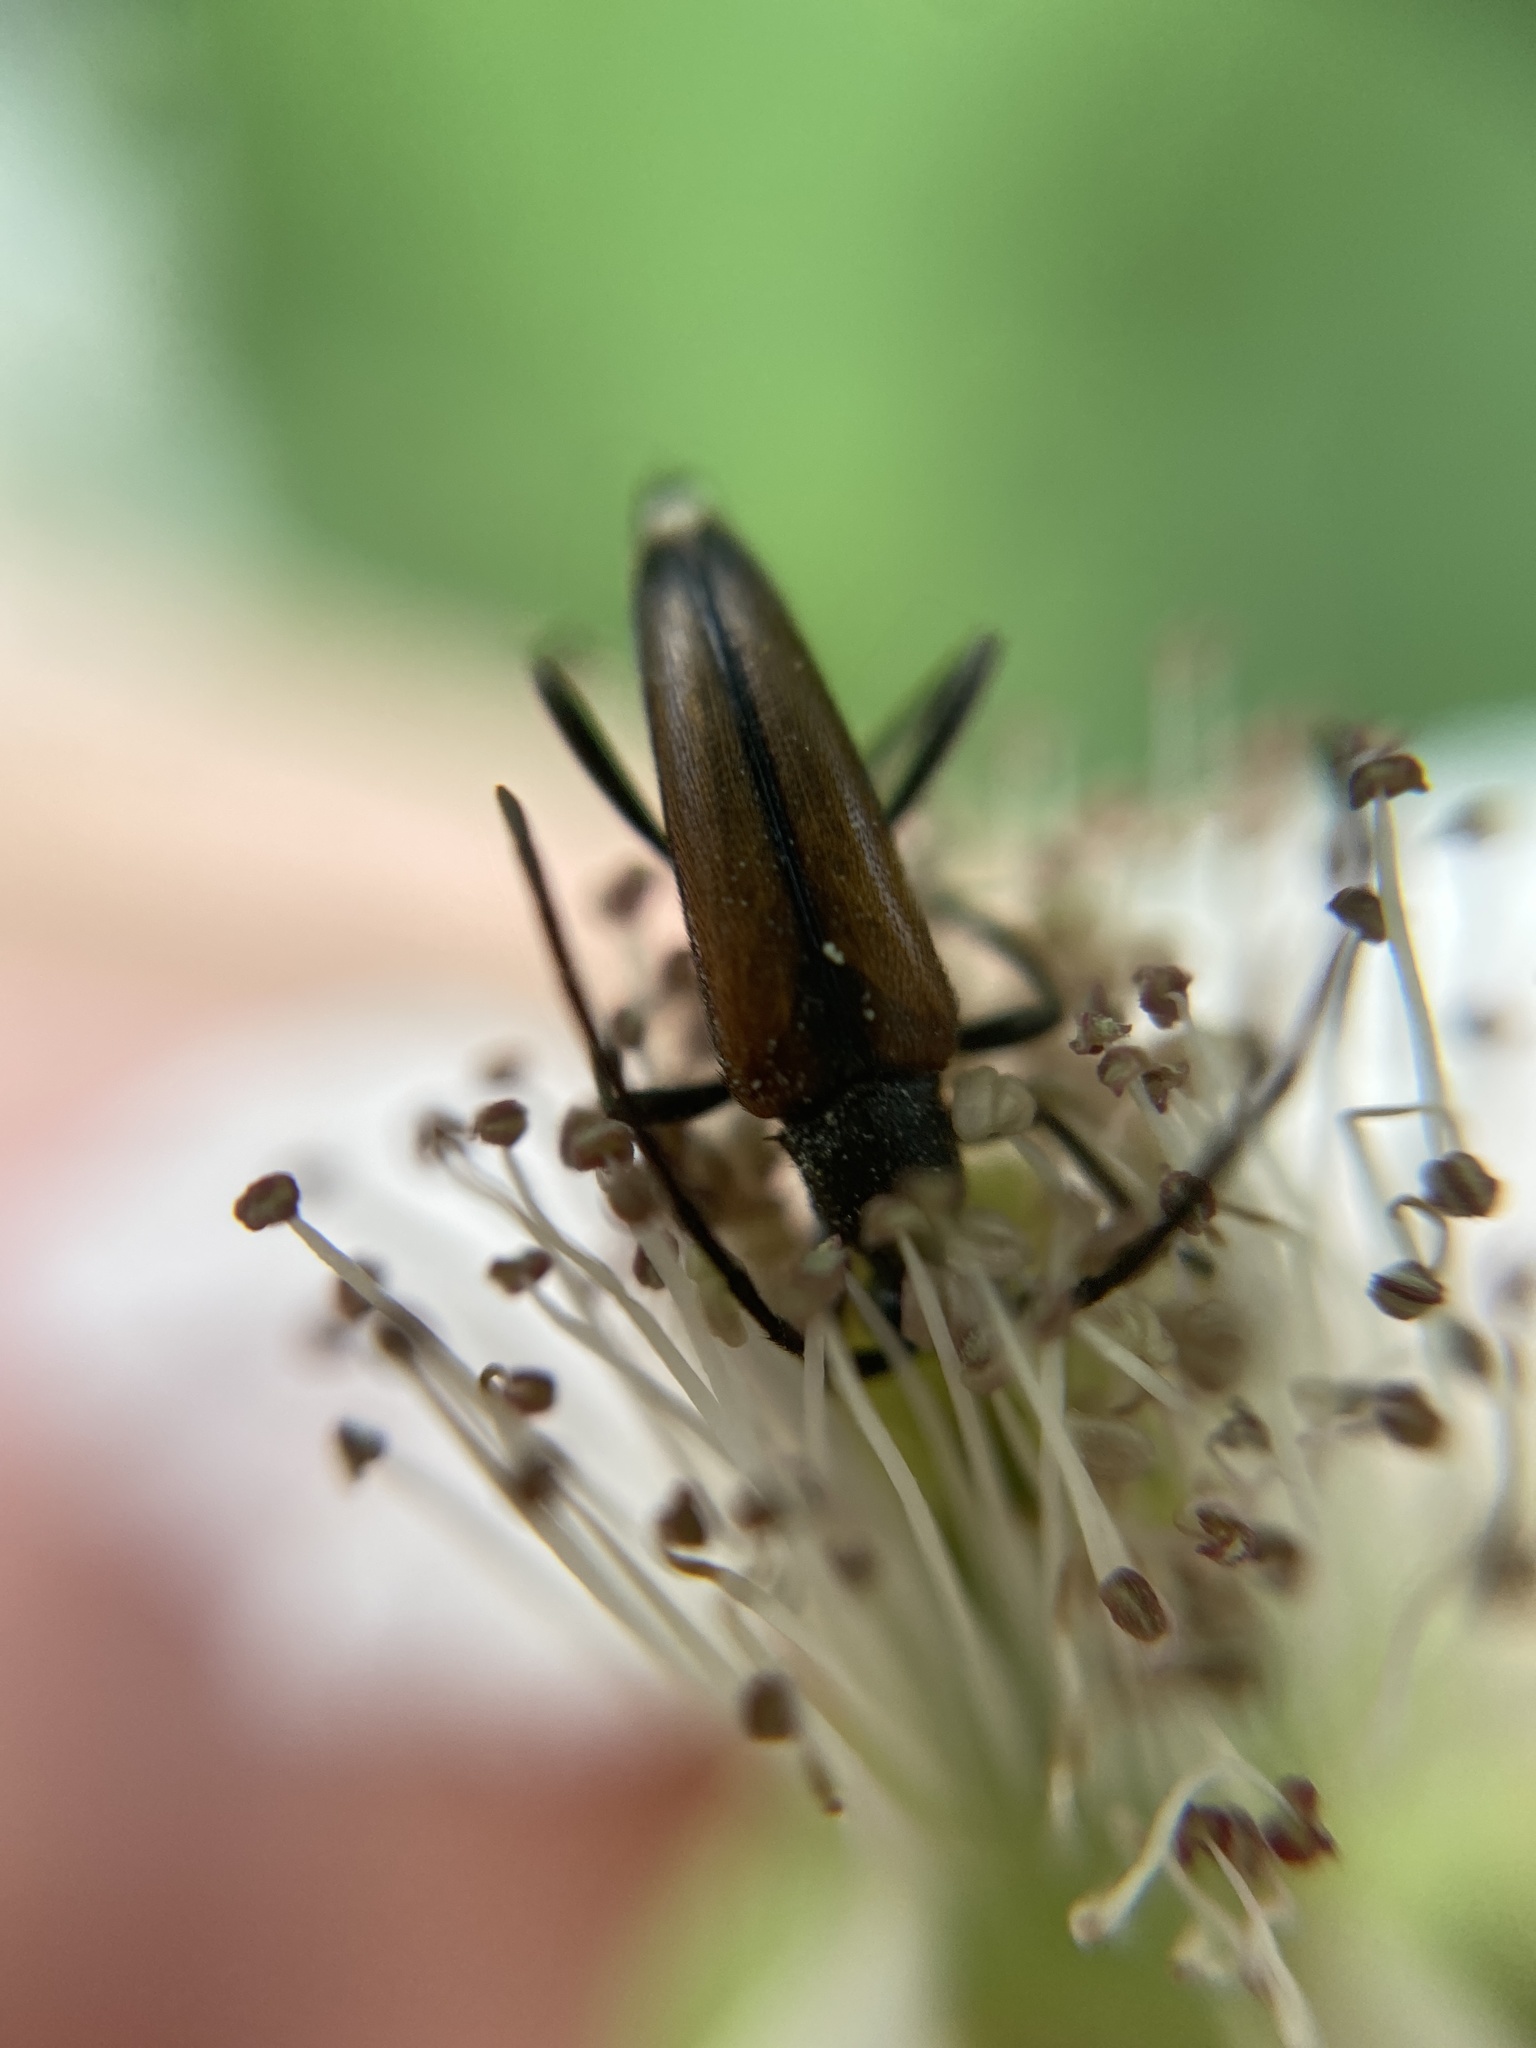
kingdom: Animalia
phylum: Arthropoda
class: Insecta
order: Coleoptera
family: Cerambycidae
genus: Stenurella
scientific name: Stenurella melanura
